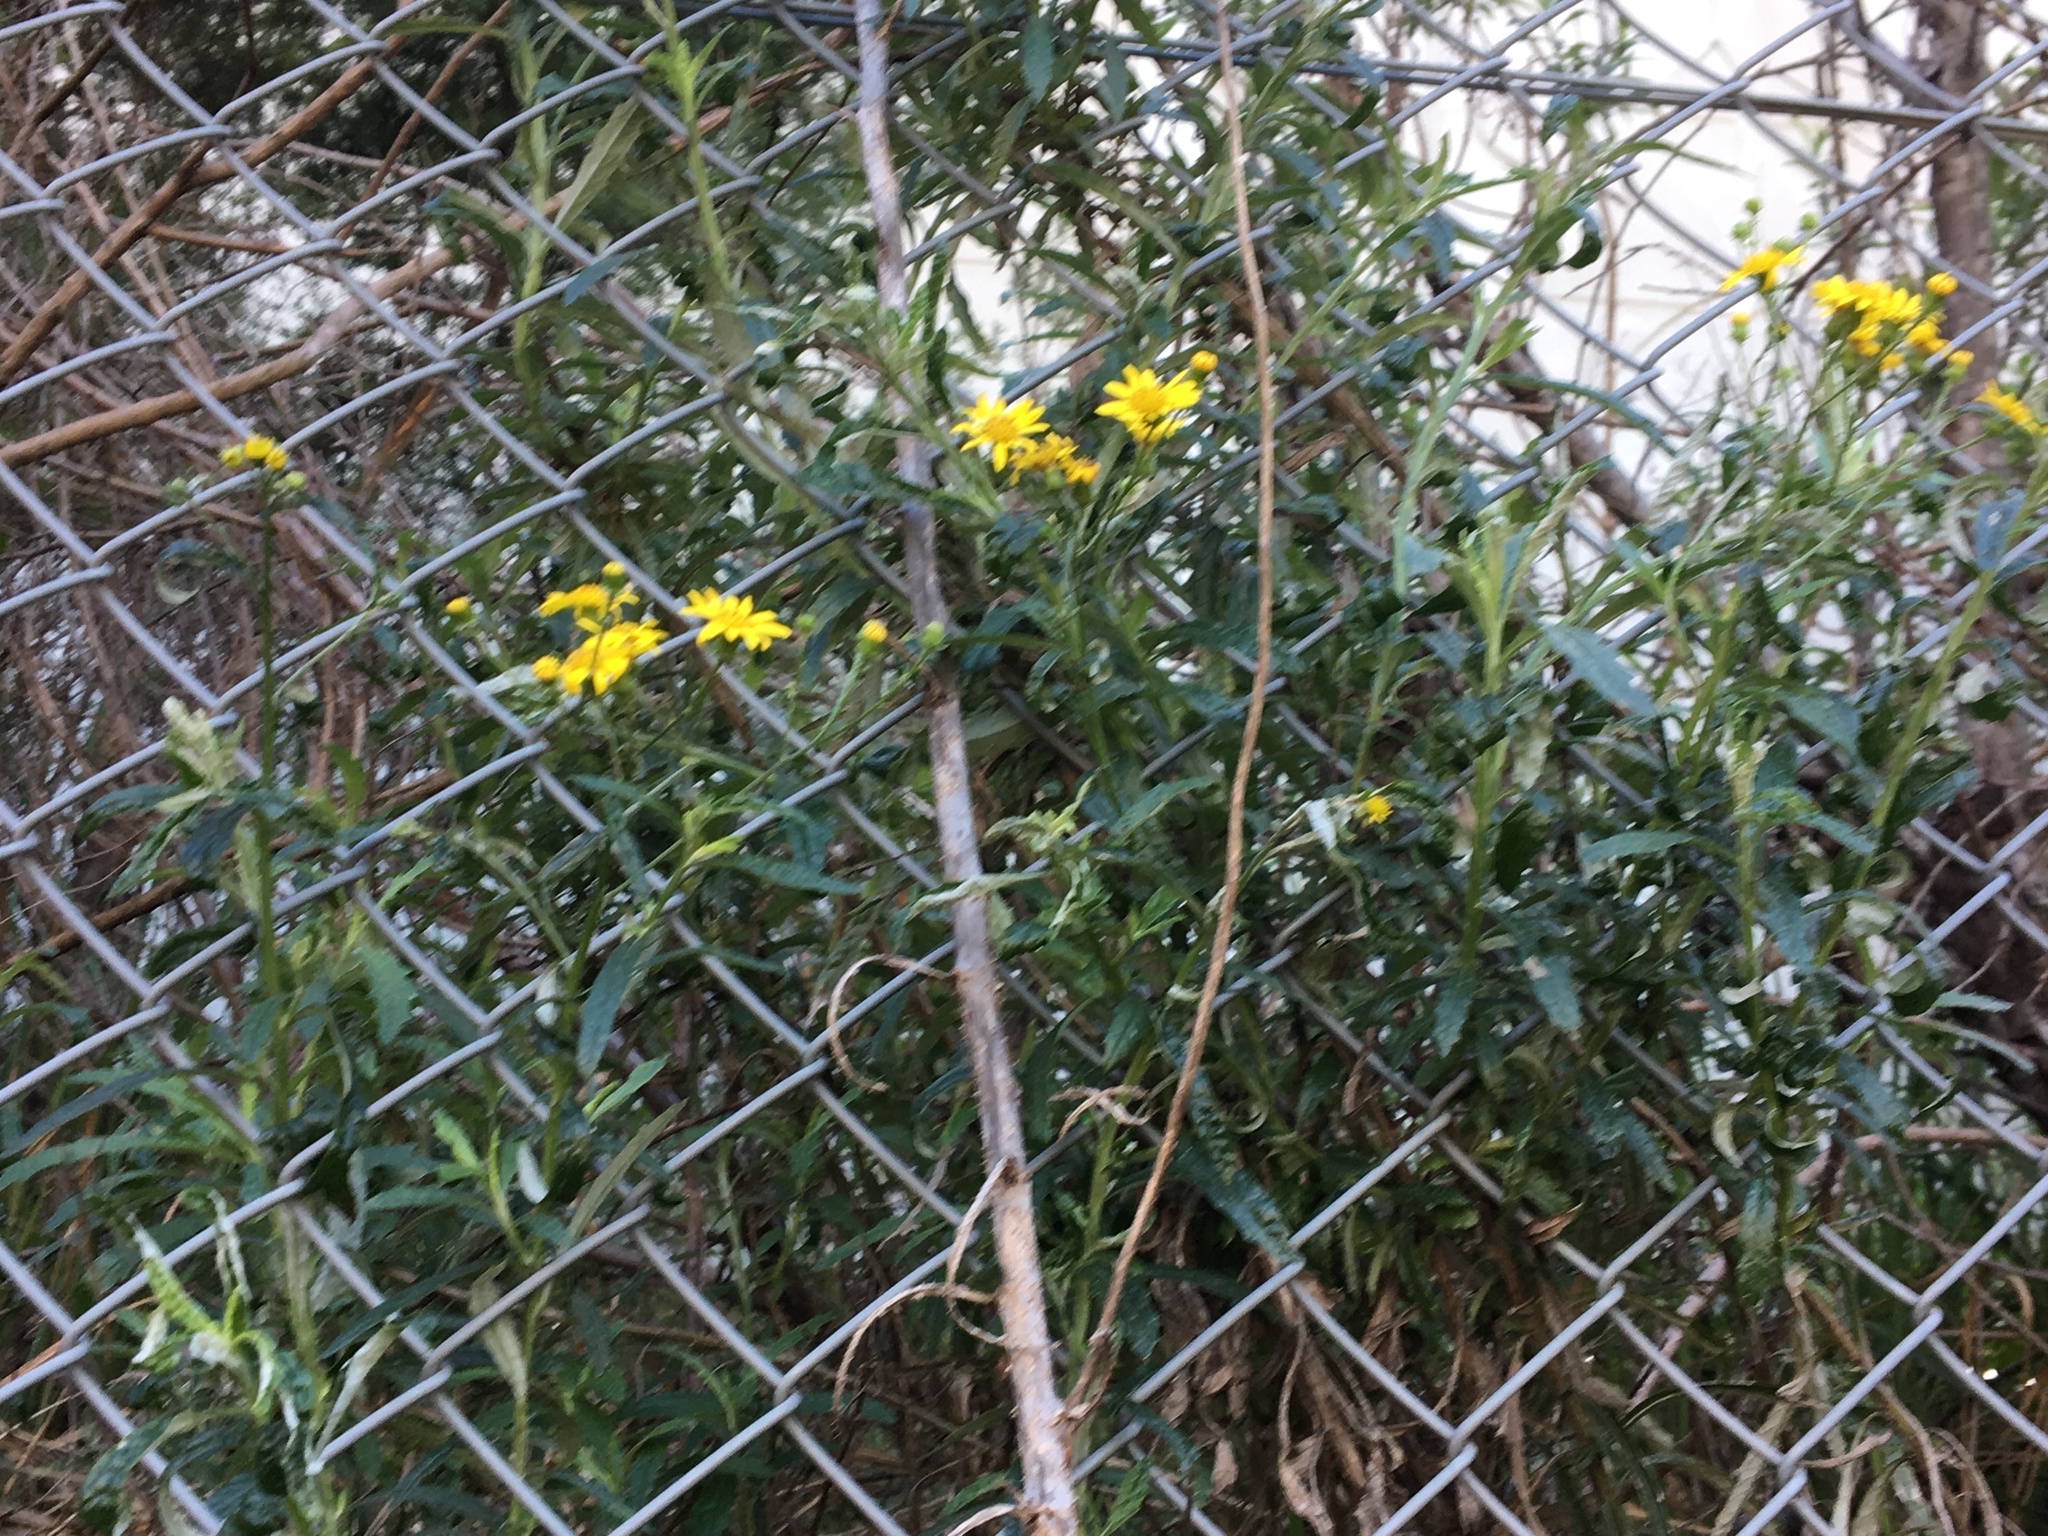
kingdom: Plantae
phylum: Tracheophyta
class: Magnoliopsida
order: Asterales
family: Asteraceae
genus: Senecio
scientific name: Senecio pterophorus
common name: Shoddy ragwort
